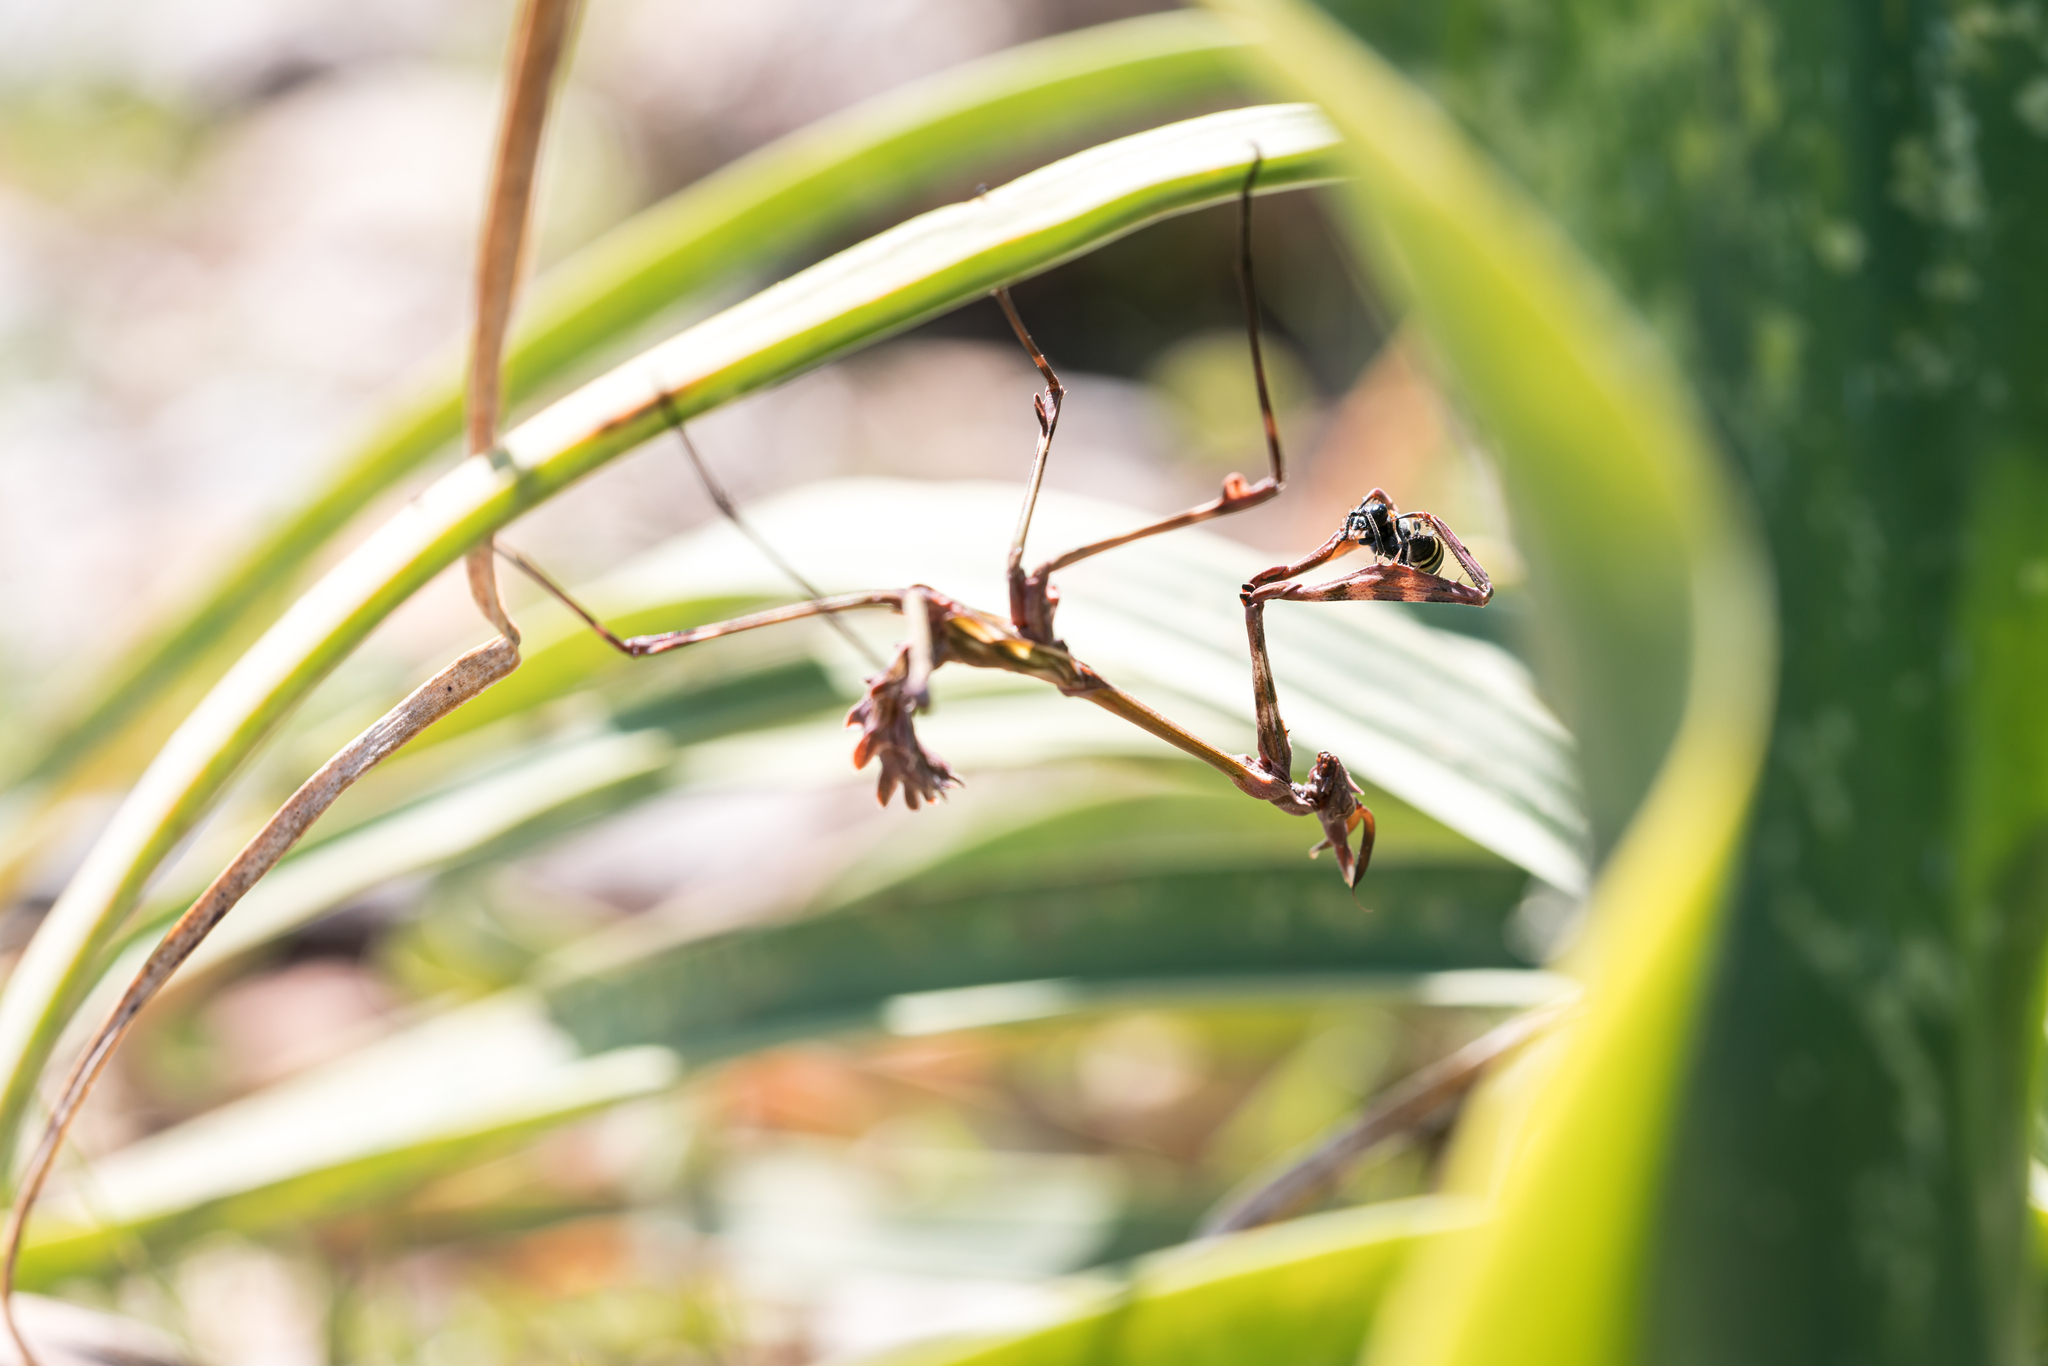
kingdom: Animalia
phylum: Arthropoda
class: Insecta
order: Mantodea
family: Empusidae
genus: Empusa
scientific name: Empusa fasciata
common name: Devil's mare
